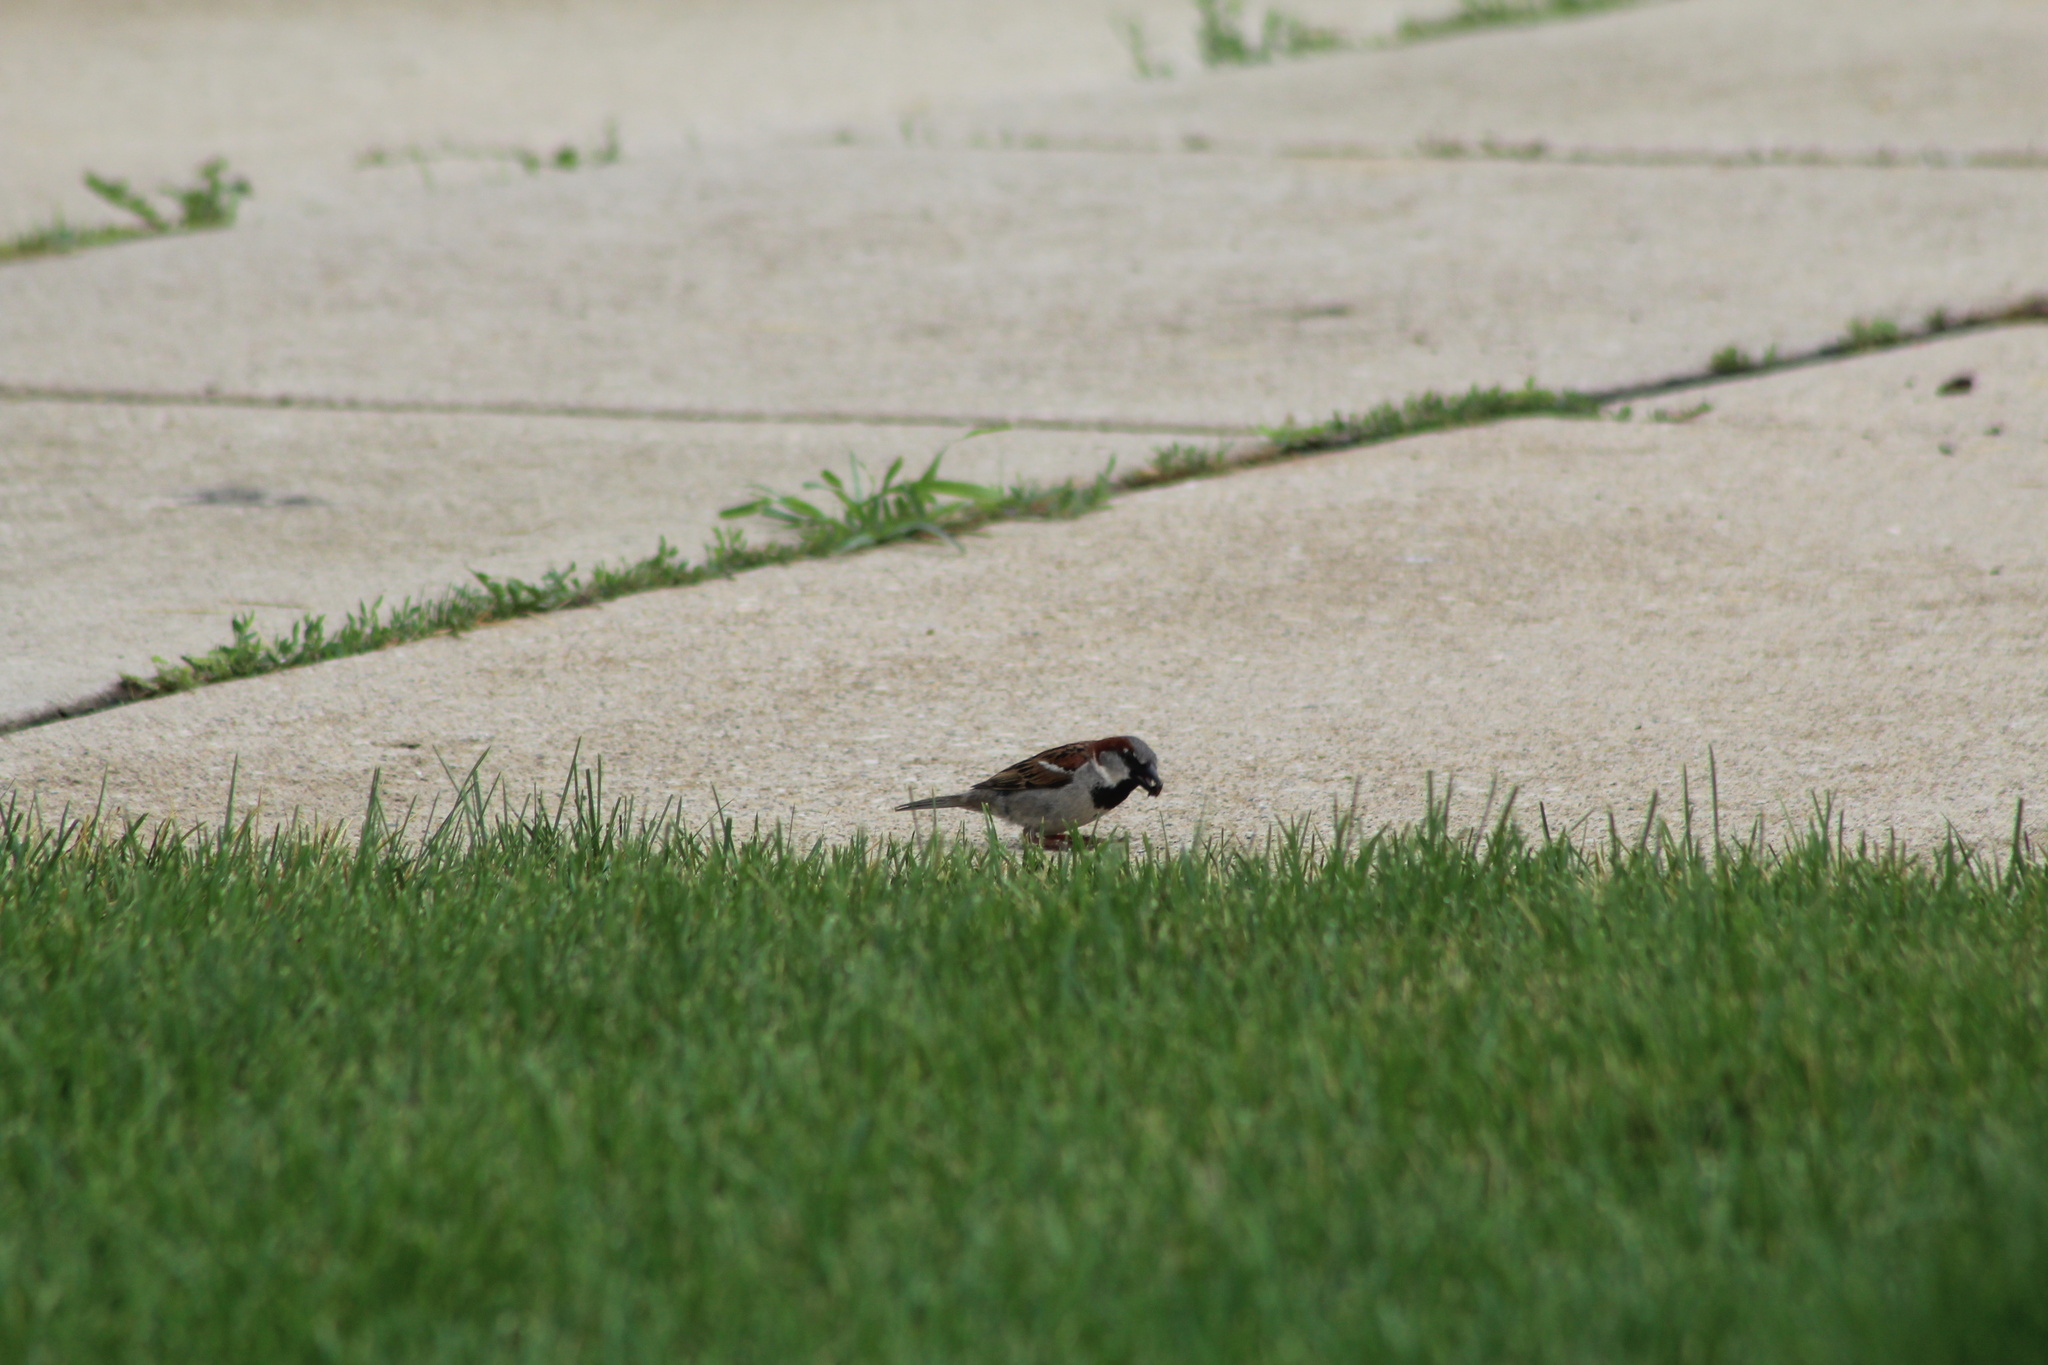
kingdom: Animalia
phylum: Chordata
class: Aves
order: Passeriformes
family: Passeridae
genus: Passer
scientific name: Passer domesticus
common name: House sparrow
